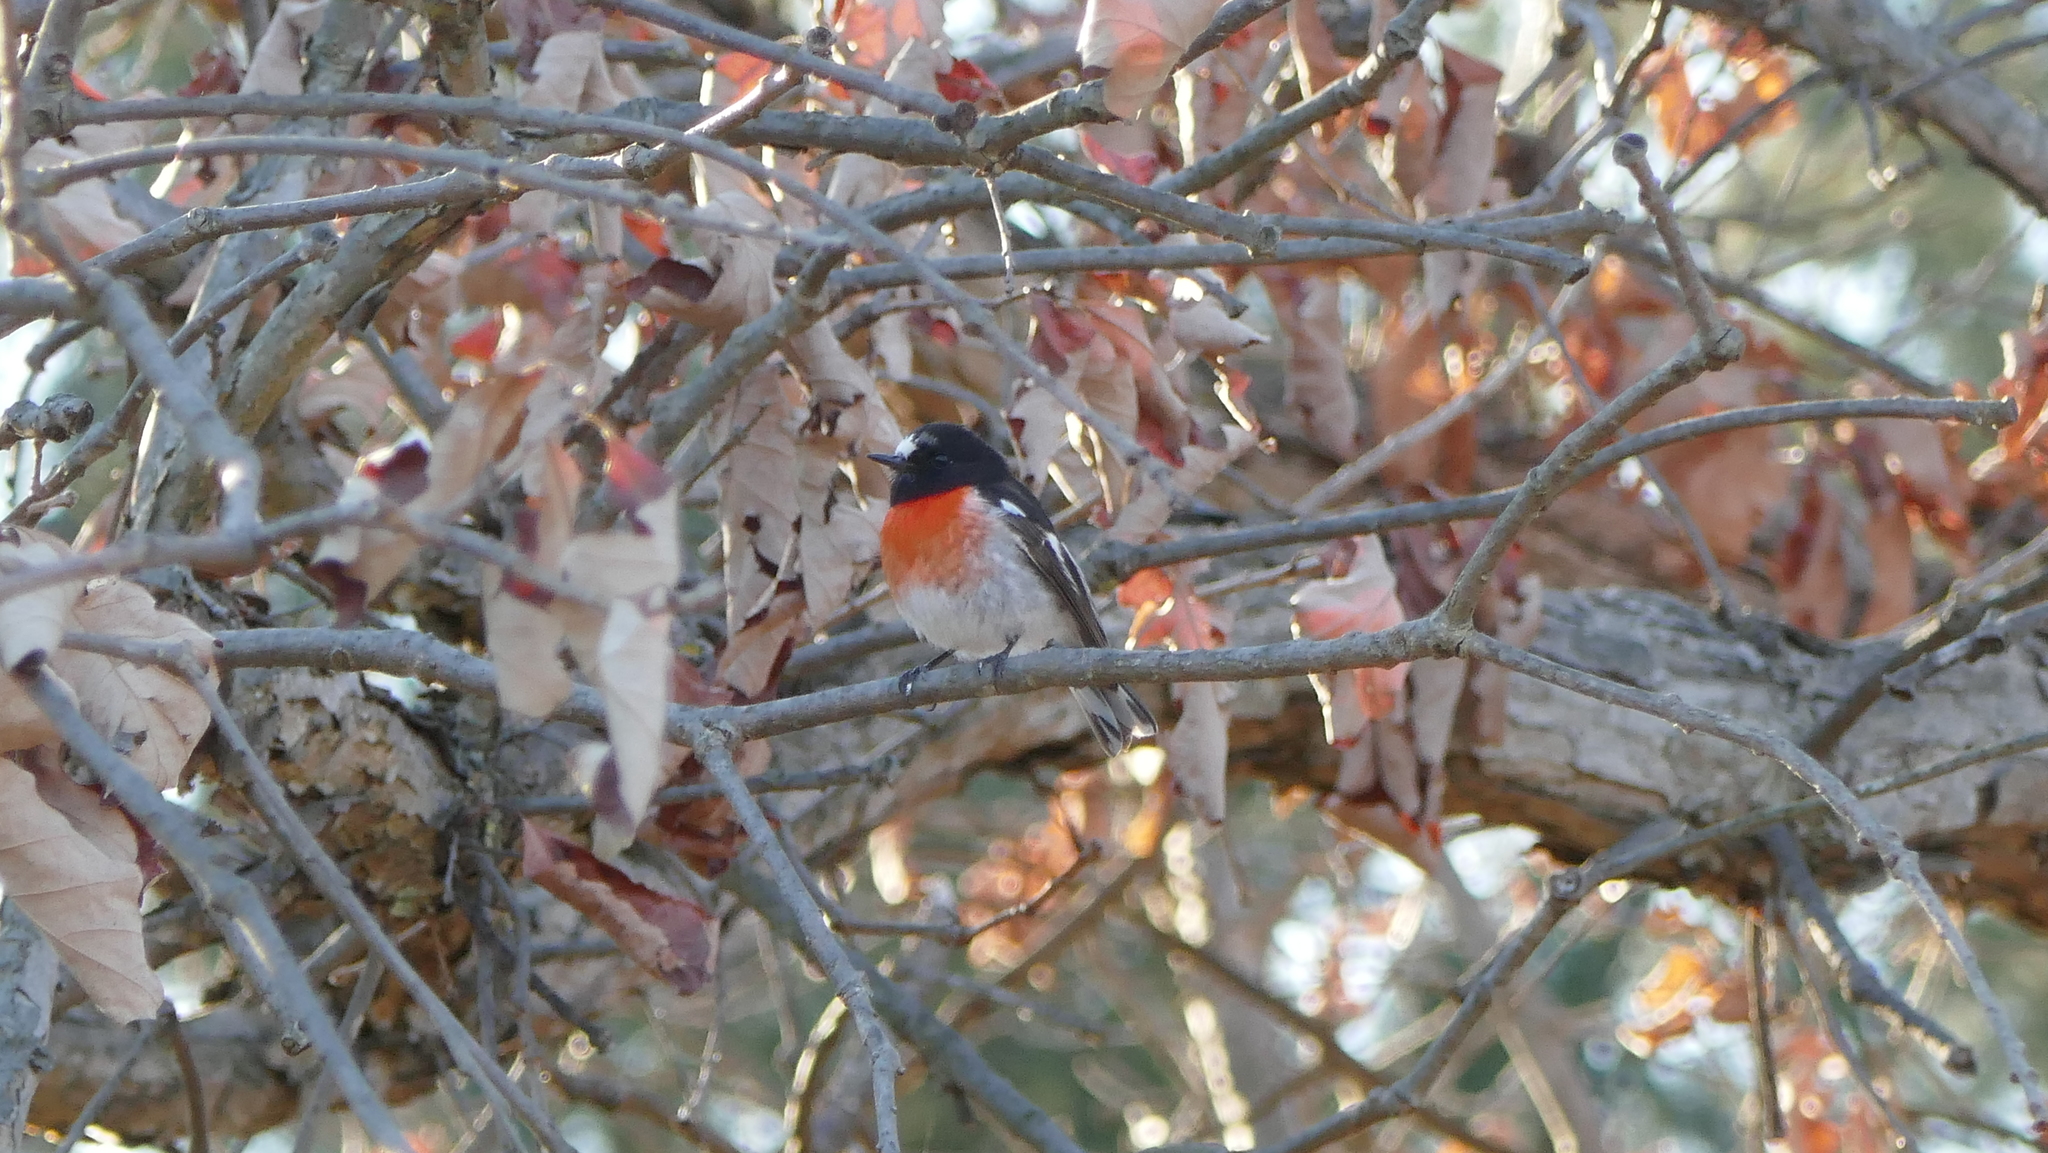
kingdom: Animalia
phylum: Chordata
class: Aves
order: Passeriformes
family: Petroicidae
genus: Petroica
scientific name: Petroica boodang
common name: Scarlet robin
